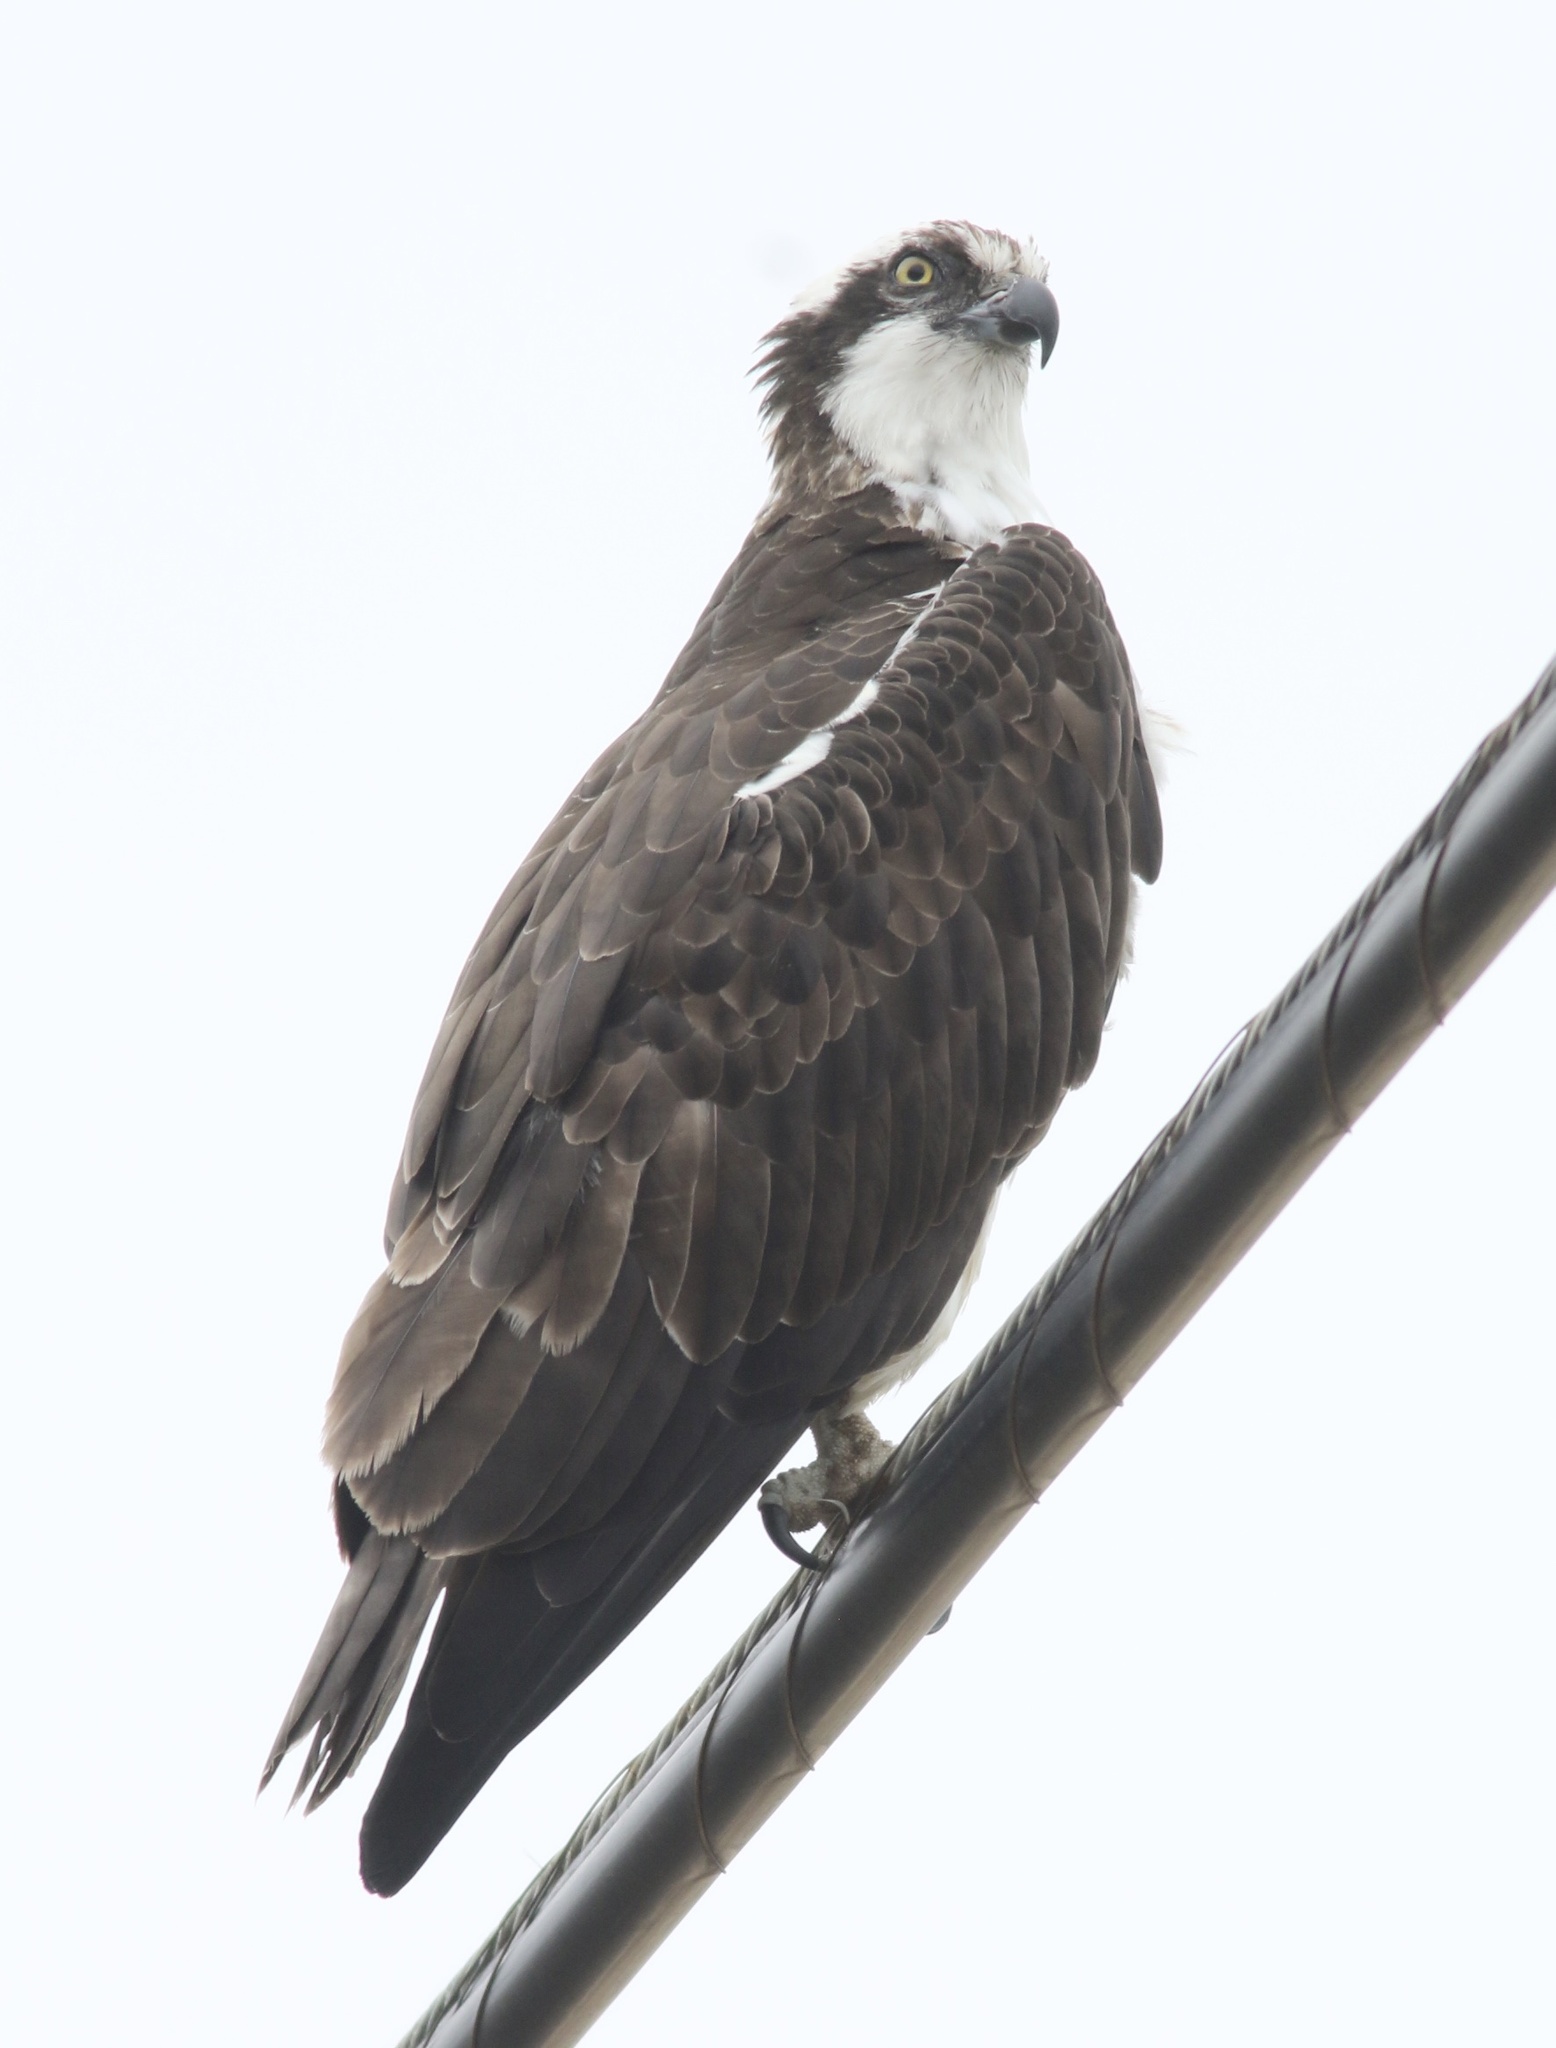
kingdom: Animalia
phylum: Chordata
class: Aves
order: Accipitriformes
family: Pandionidae
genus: Pandion
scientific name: Pandion haliaetus
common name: Osprey
